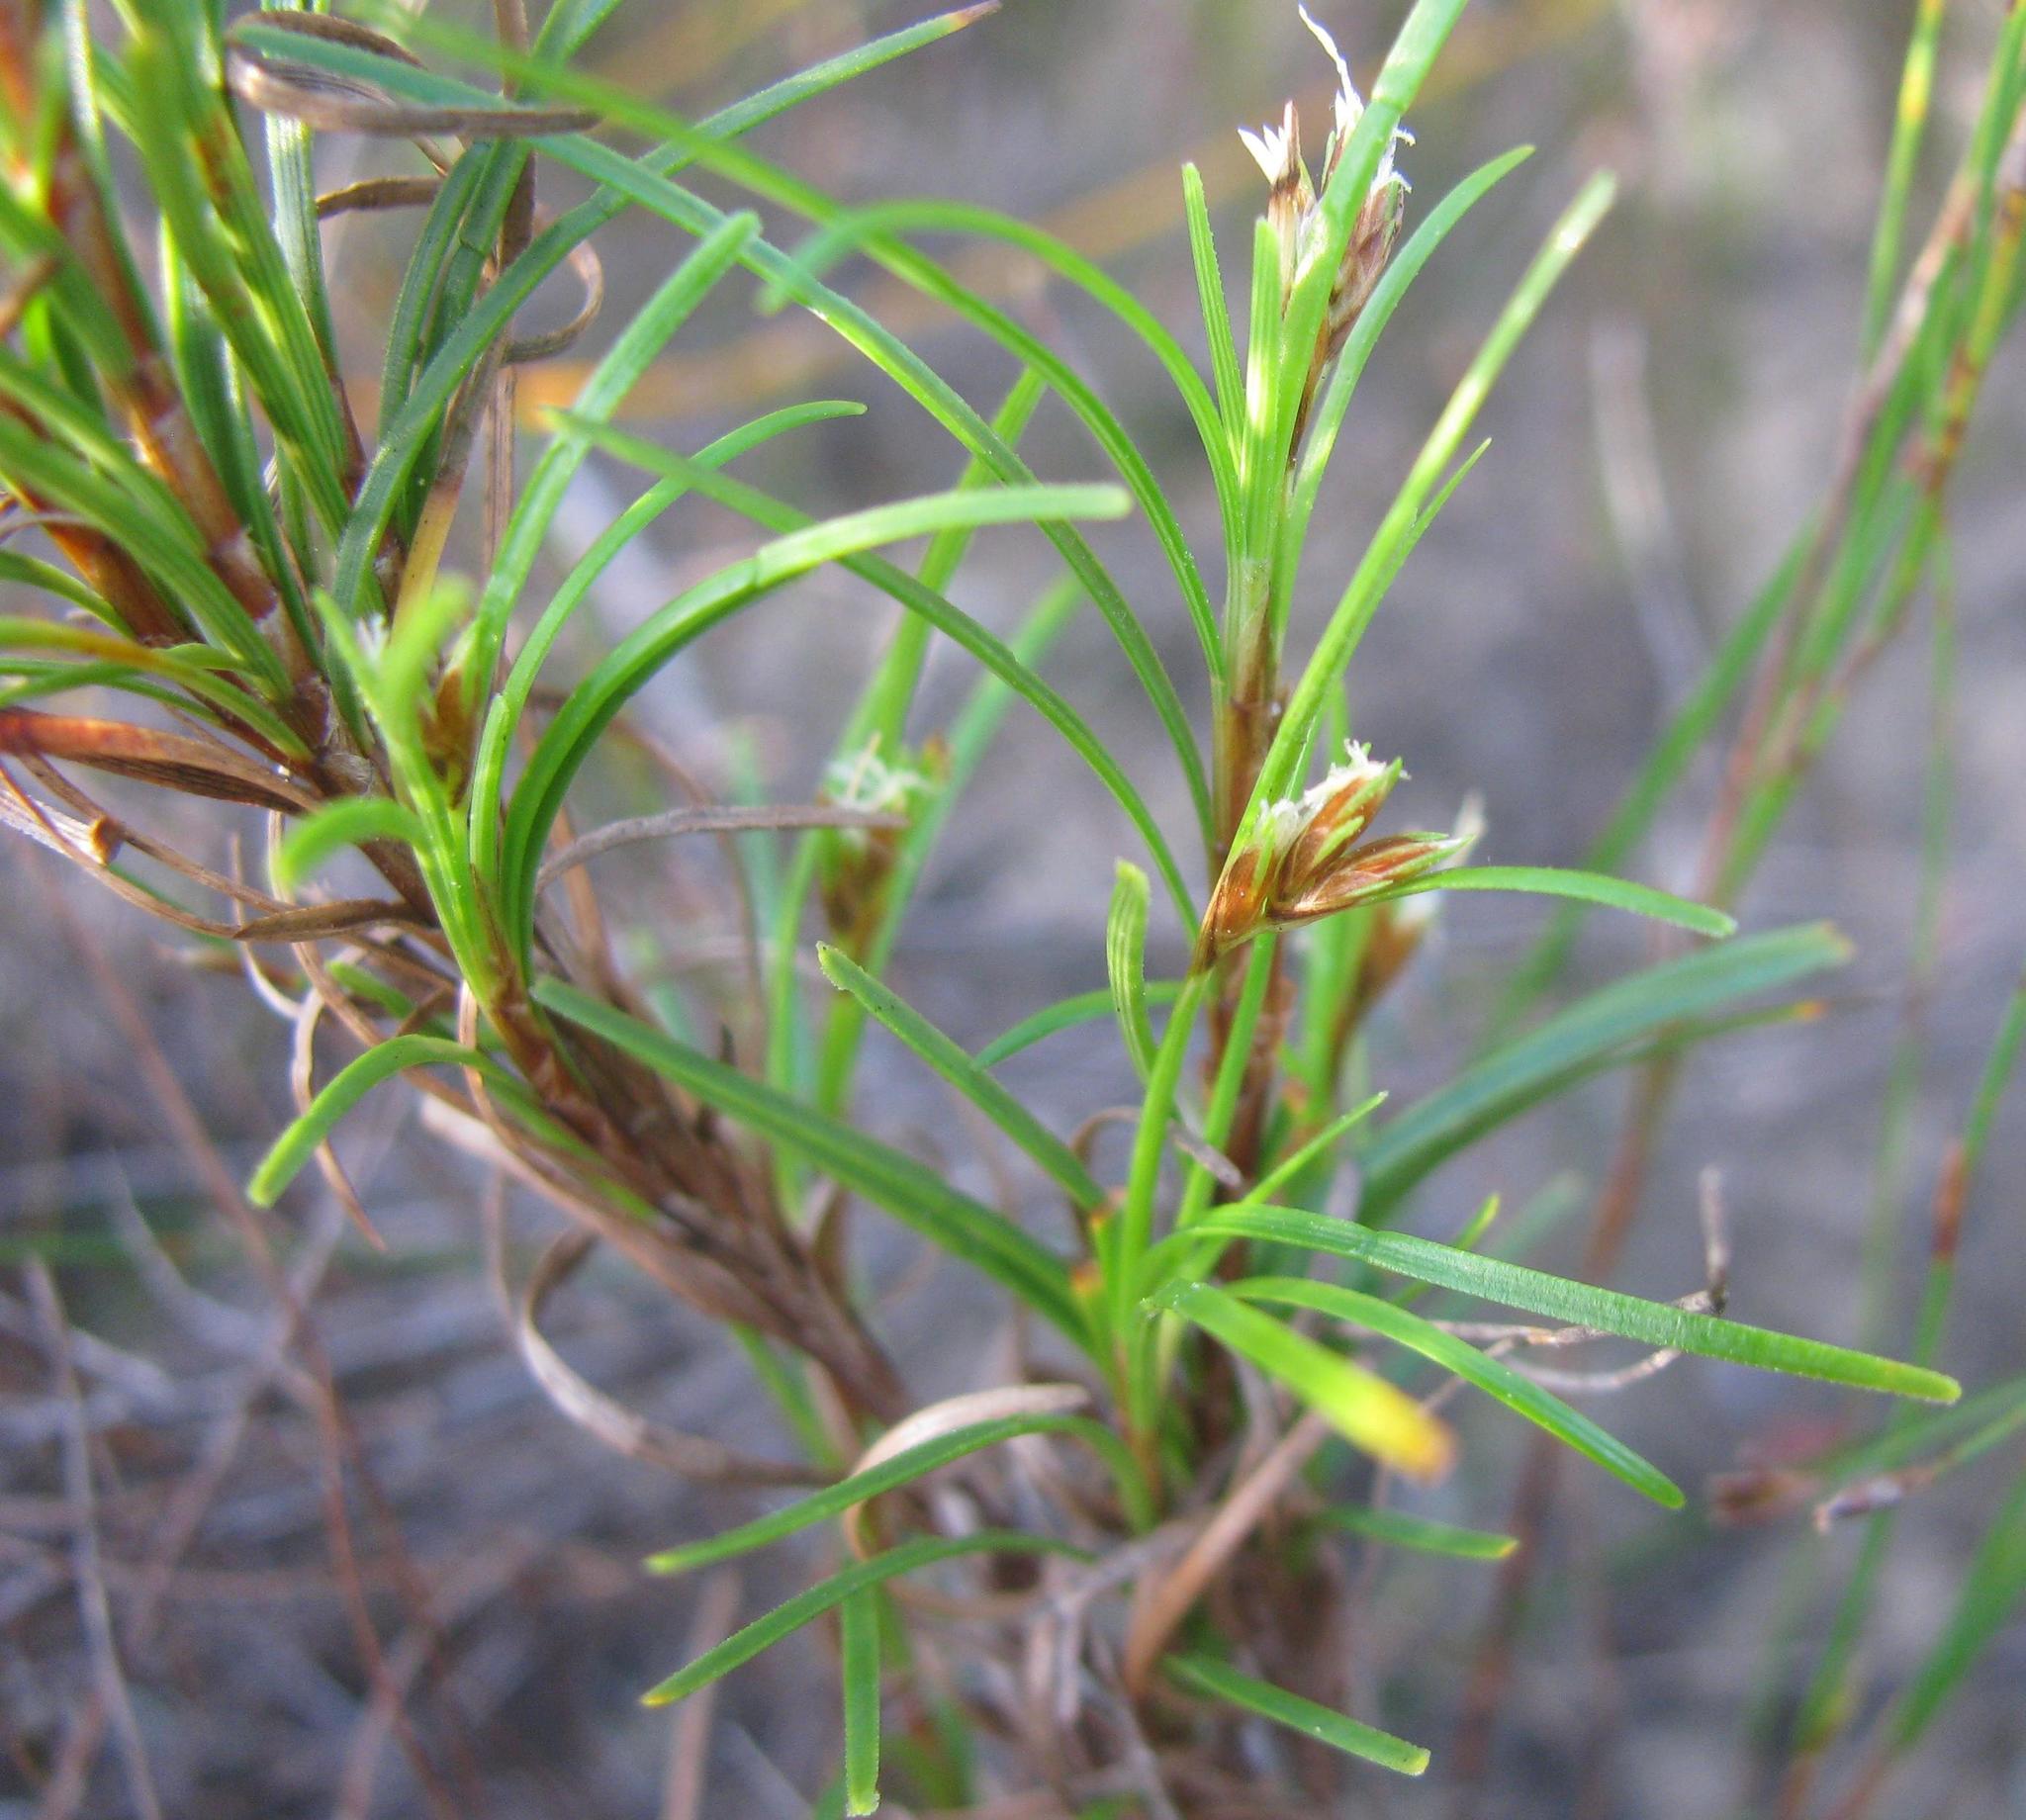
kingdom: Plantae
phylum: Tracheophyta
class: Liliopsida
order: Poales
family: Cyperaceae
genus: Ficinia
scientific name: Ficinia ramosissima
